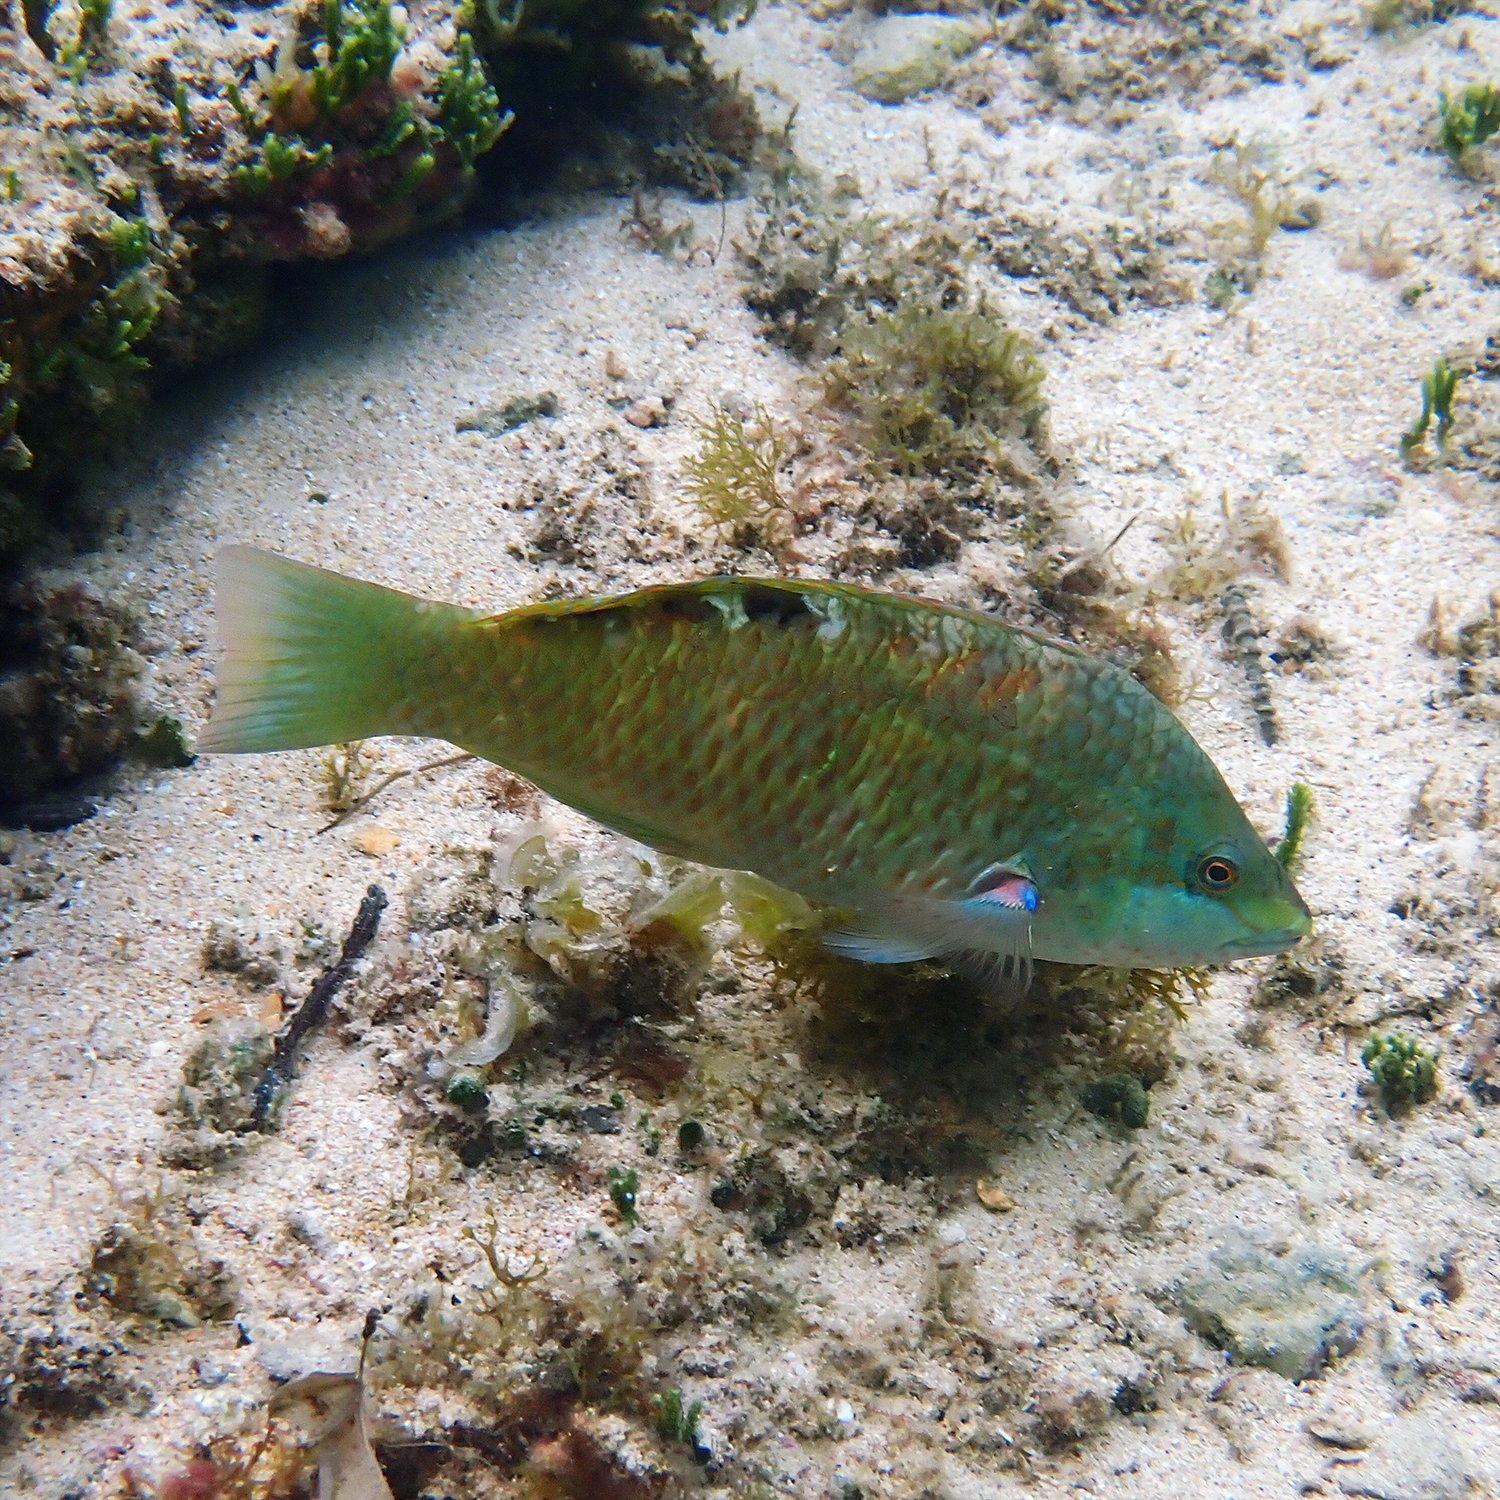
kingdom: Animalia
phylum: Chordata
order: Perciformes
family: Labridae
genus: Pseudolabrus
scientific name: Pseudolabrus luculentus
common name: Luculentus wrasse
